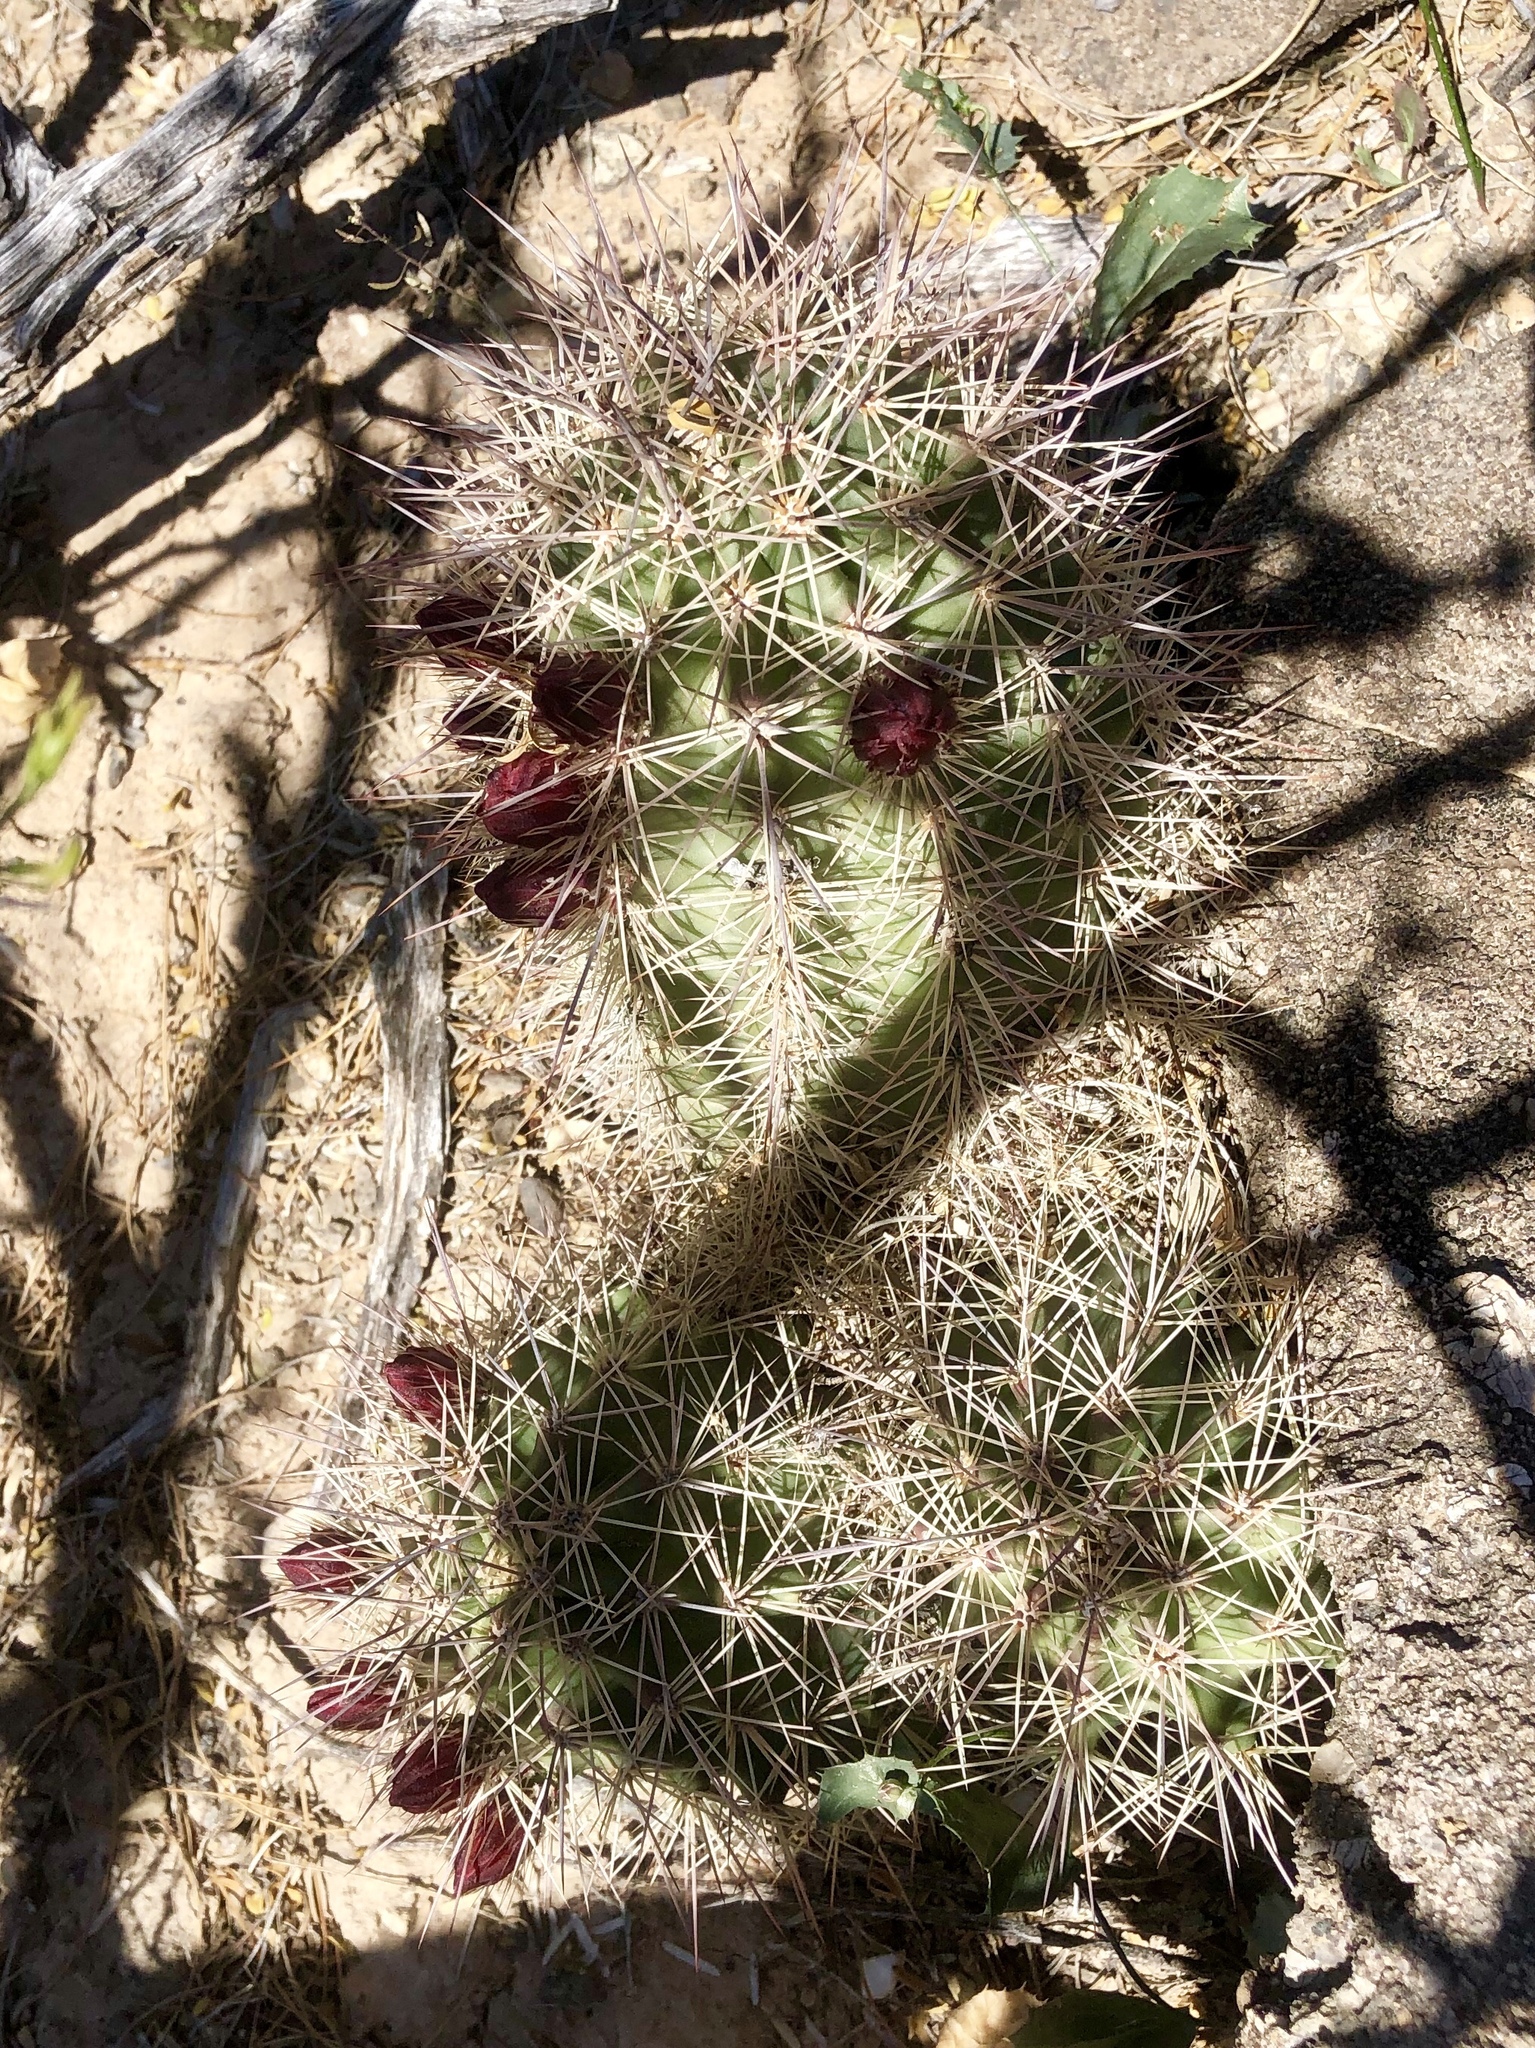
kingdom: Plantae
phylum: Tracheophyta
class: Magnoliopsida
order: Caryophyllales
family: Cactaceae
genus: Echinocereus
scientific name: Echinocereus coccineus
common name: Scarlet hedgehog cactus
